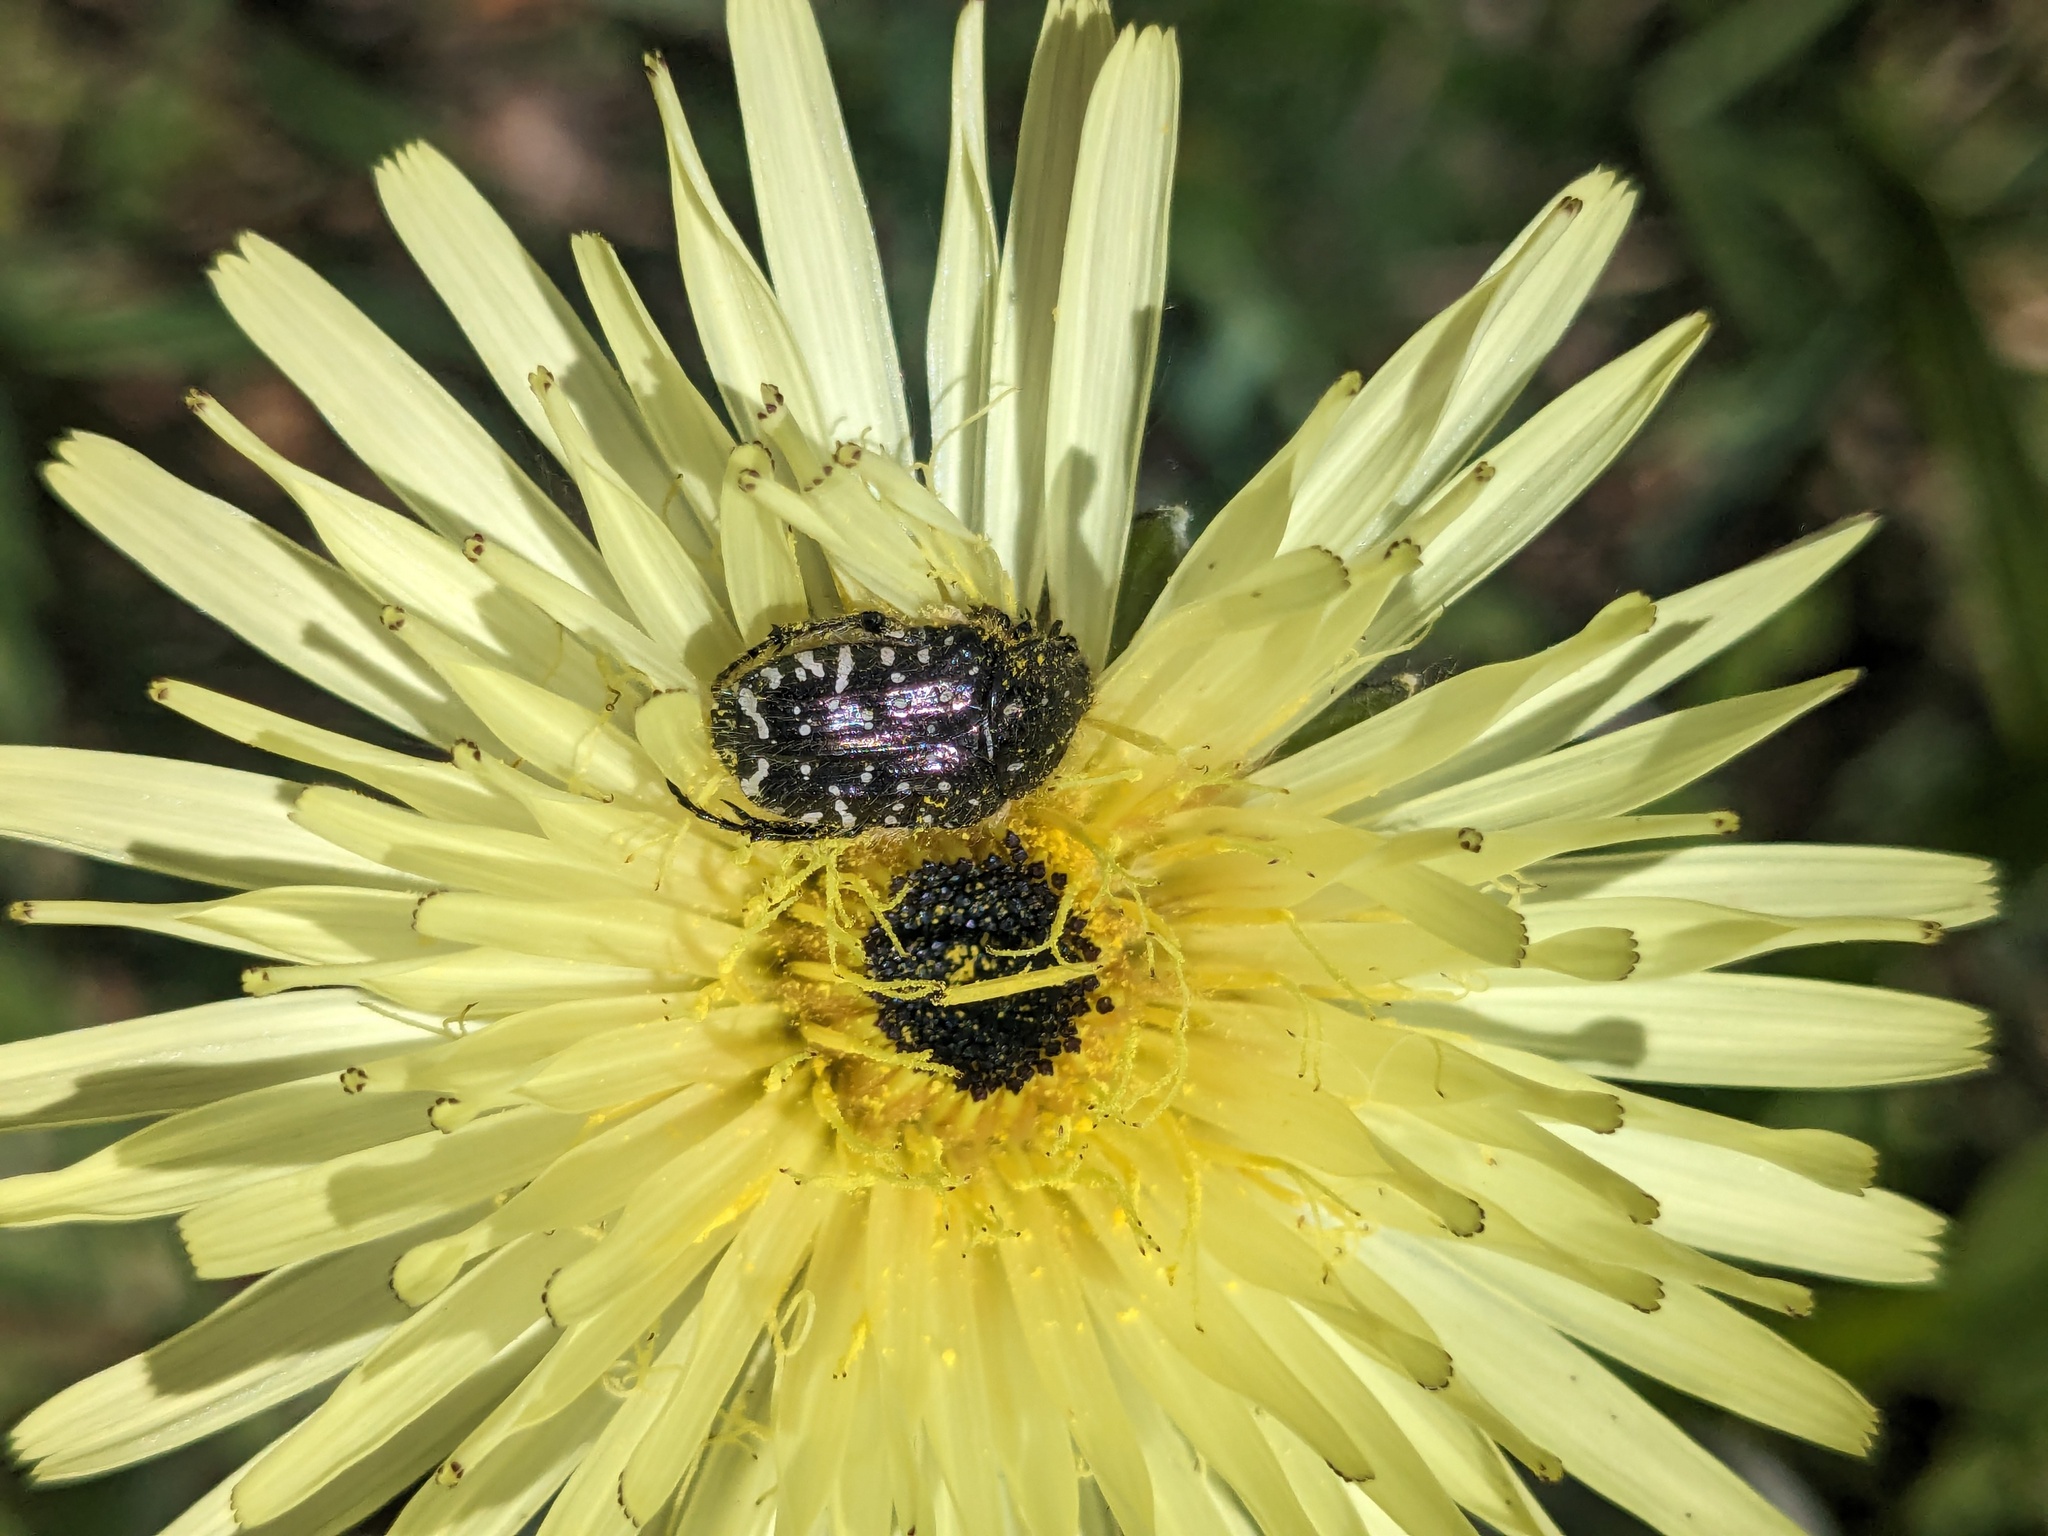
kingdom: Animalia
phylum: Arthropoda
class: Insecta
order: Coleoptera
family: Scarabaeidae
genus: Oxythyrea
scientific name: Oxythyrea funesta
